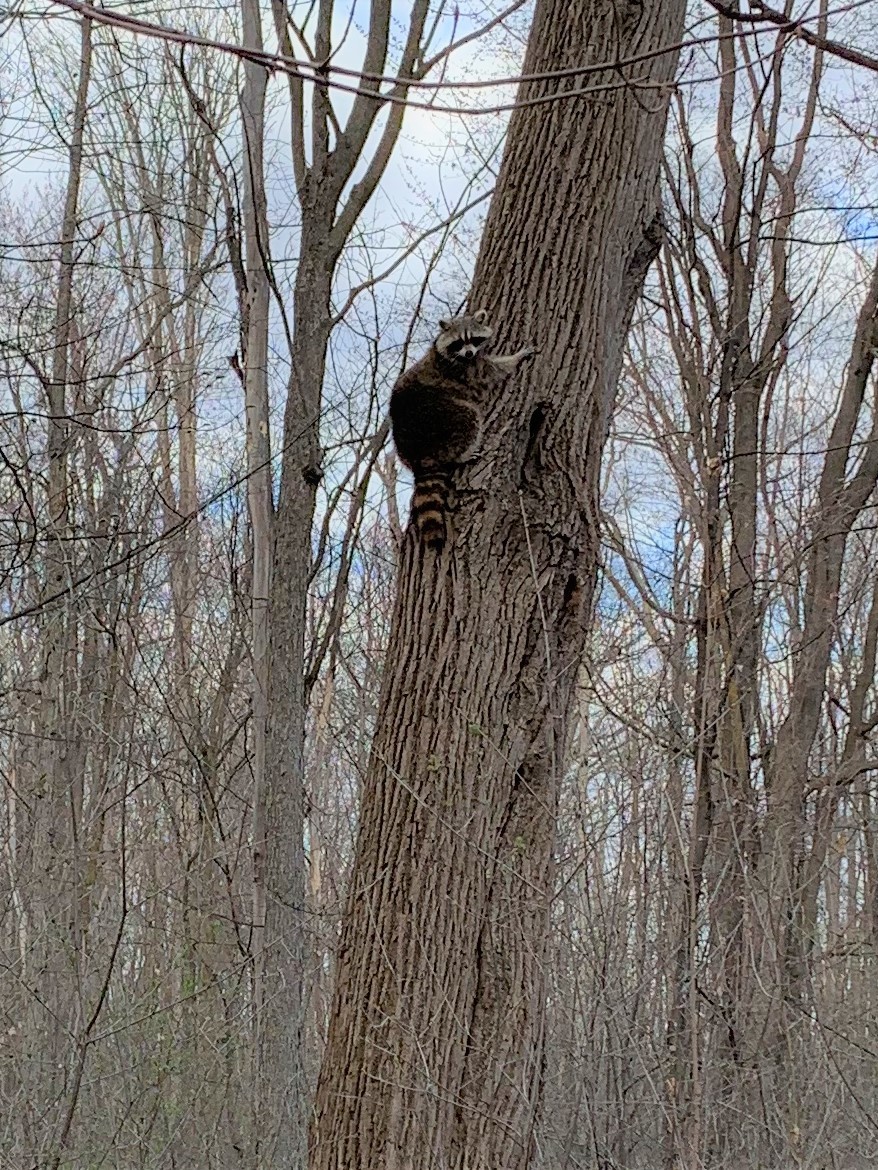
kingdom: Animalia
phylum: Chordata
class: Mammalia
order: Carnivora
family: Procyonidae
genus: Procyon
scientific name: Procyon lotor
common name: Raccoon
